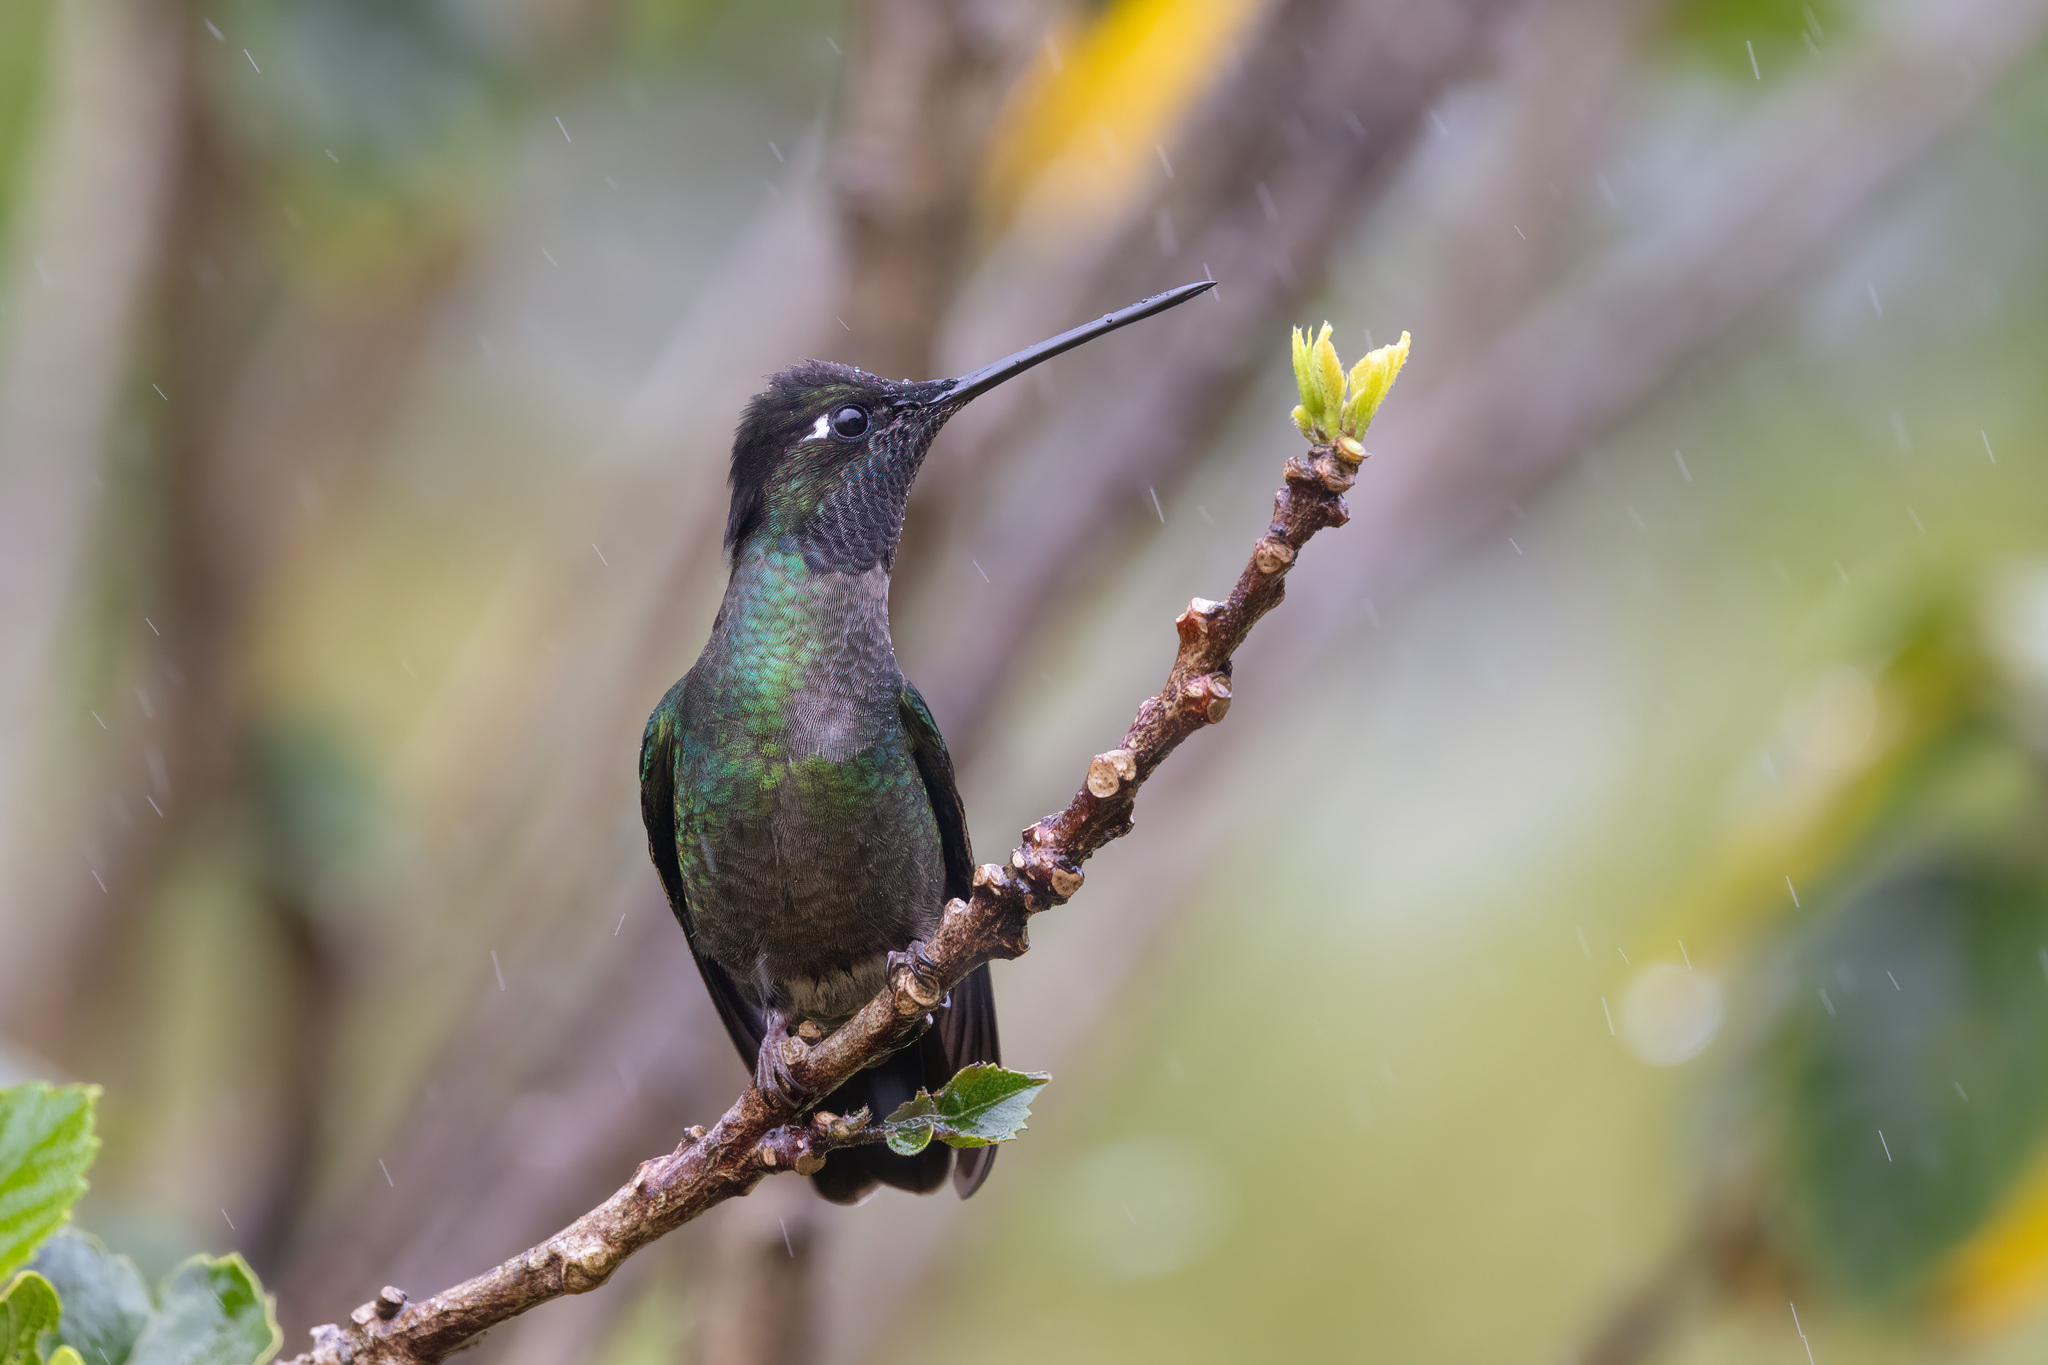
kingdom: Animalia
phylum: Chordata
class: Aves
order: Apodiformes
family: Trochilidae
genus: Eugenes
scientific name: Eugenes spectabilis
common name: Talamanca hummingbird
